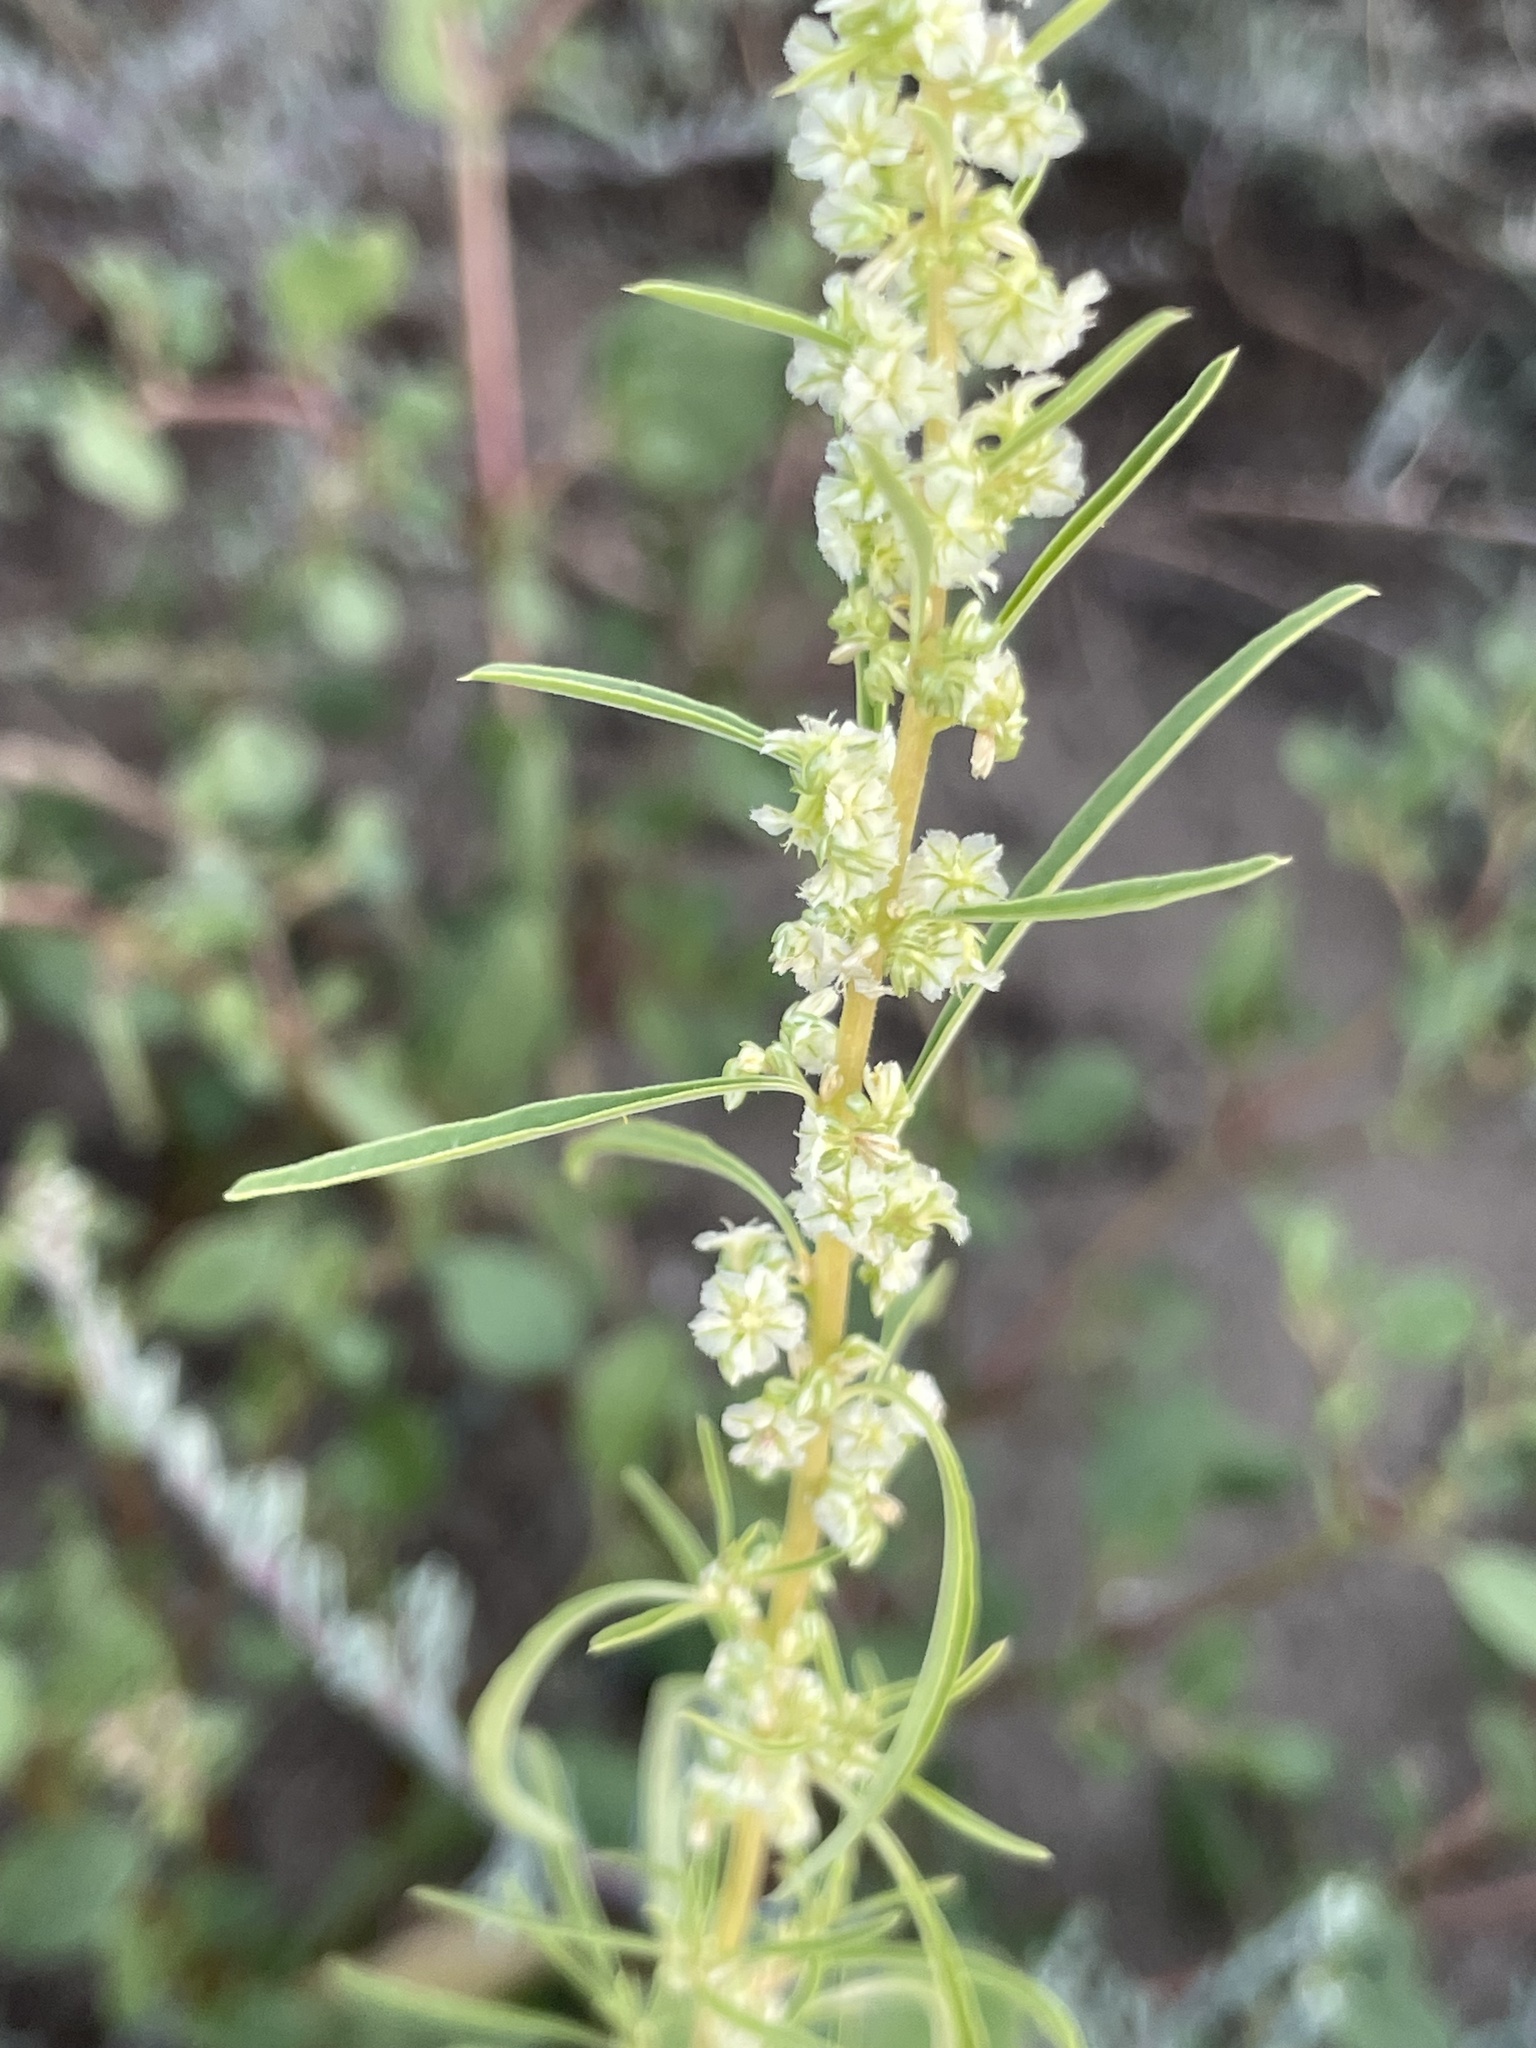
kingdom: Plantae
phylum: Tracheophyta
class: Magnoliopsida
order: Caryophyllales
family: Amaranthaceae
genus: Amaranthus
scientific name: Amaranthus fimbriatus
